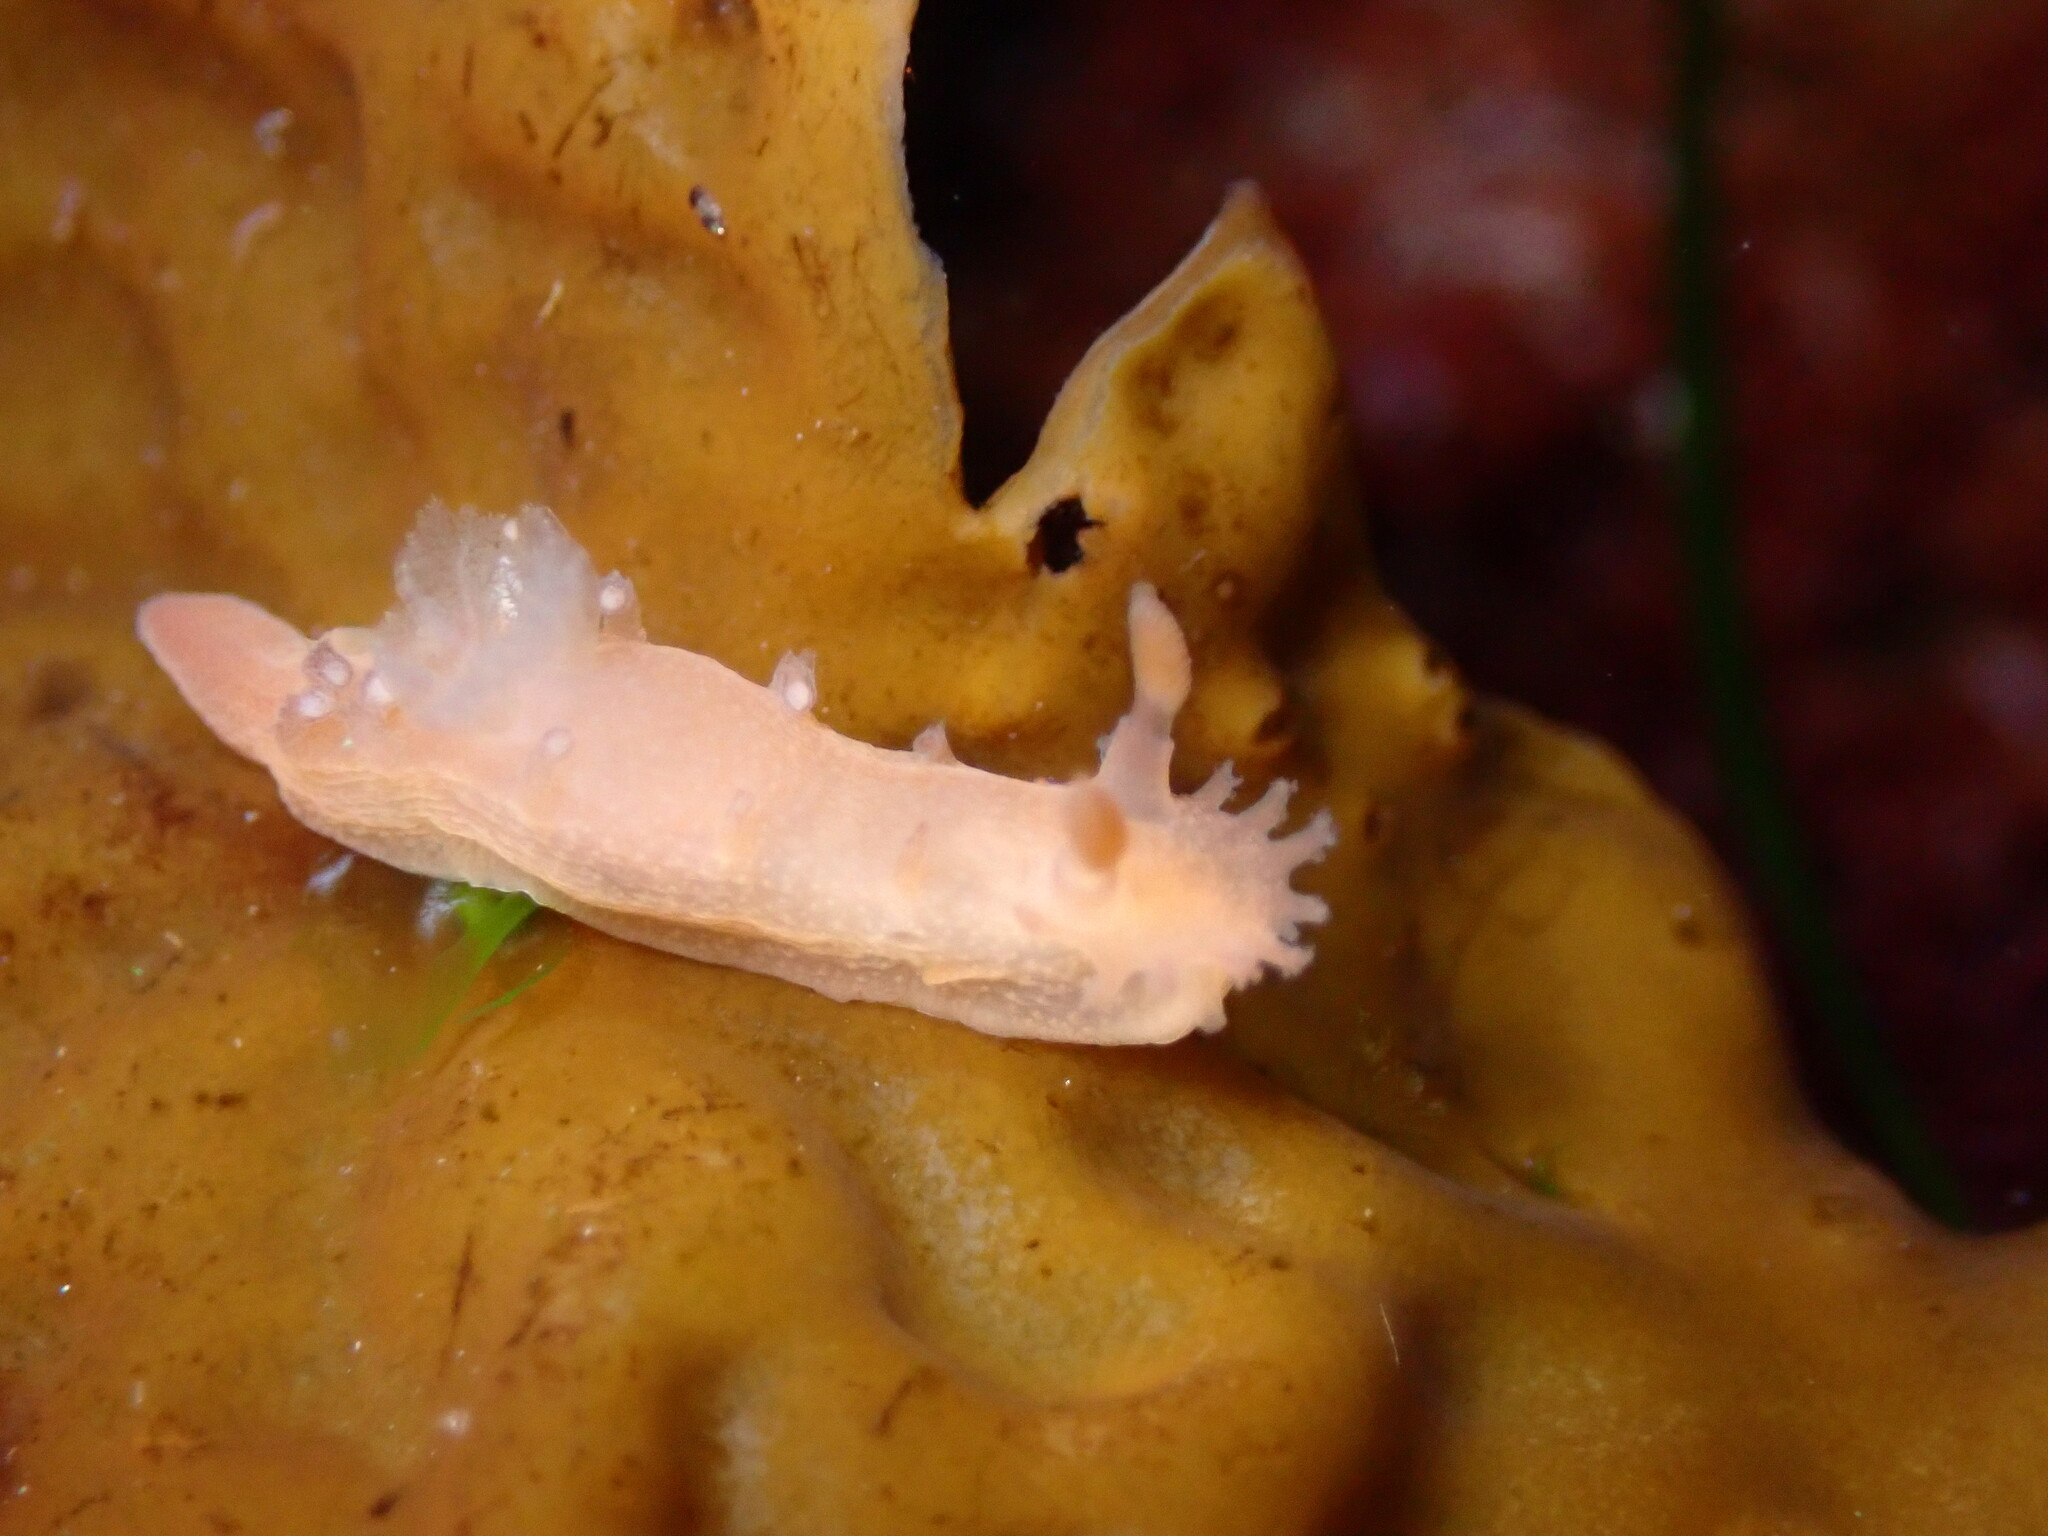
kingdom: Animalia
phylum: Mollusca
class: Gastropoda
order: Nudibranchia
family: Polyceridae
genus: Triopha
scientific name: Triopha maculata
